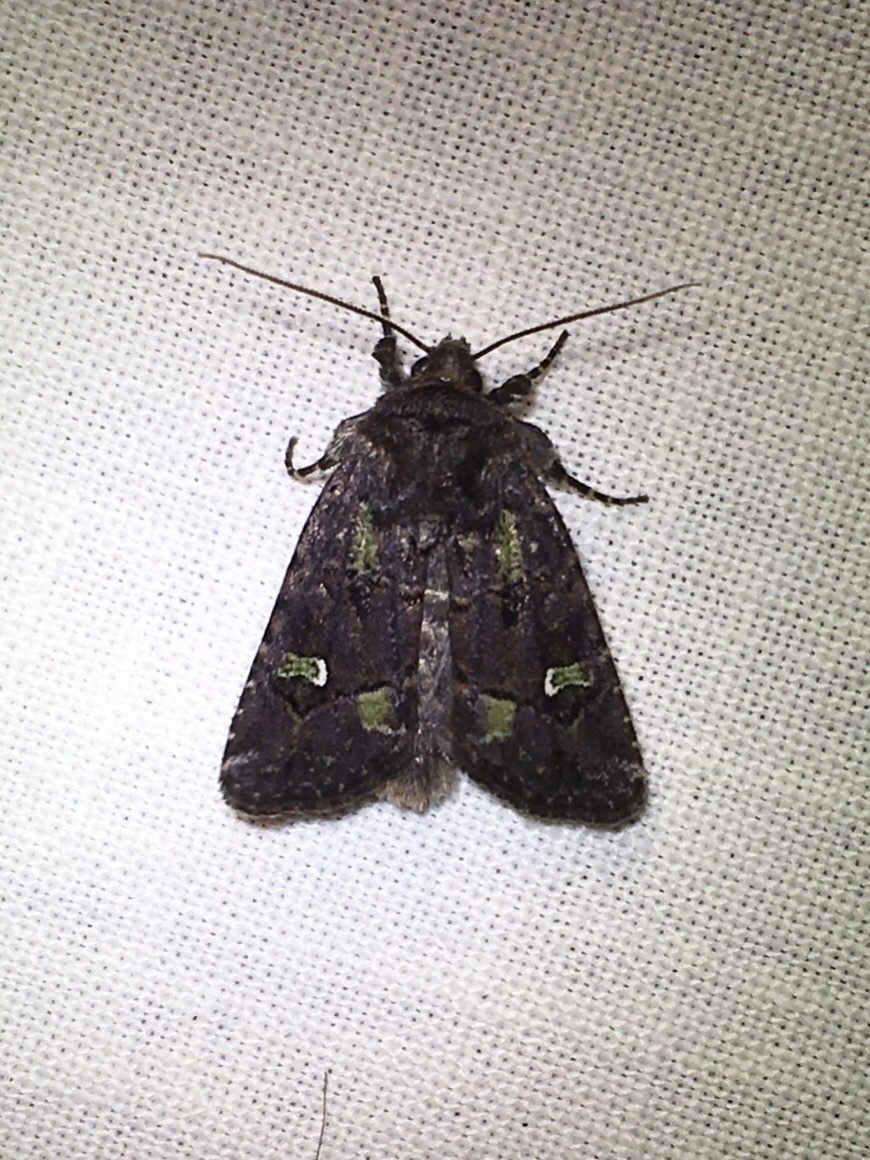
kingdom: Animalia
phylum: Arthropoda
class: Insecta
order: Lepidoptera
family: Noctuidae
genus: Lacinipolia
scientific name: Lacinipolia renigera
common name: Kidney-spotted minor
